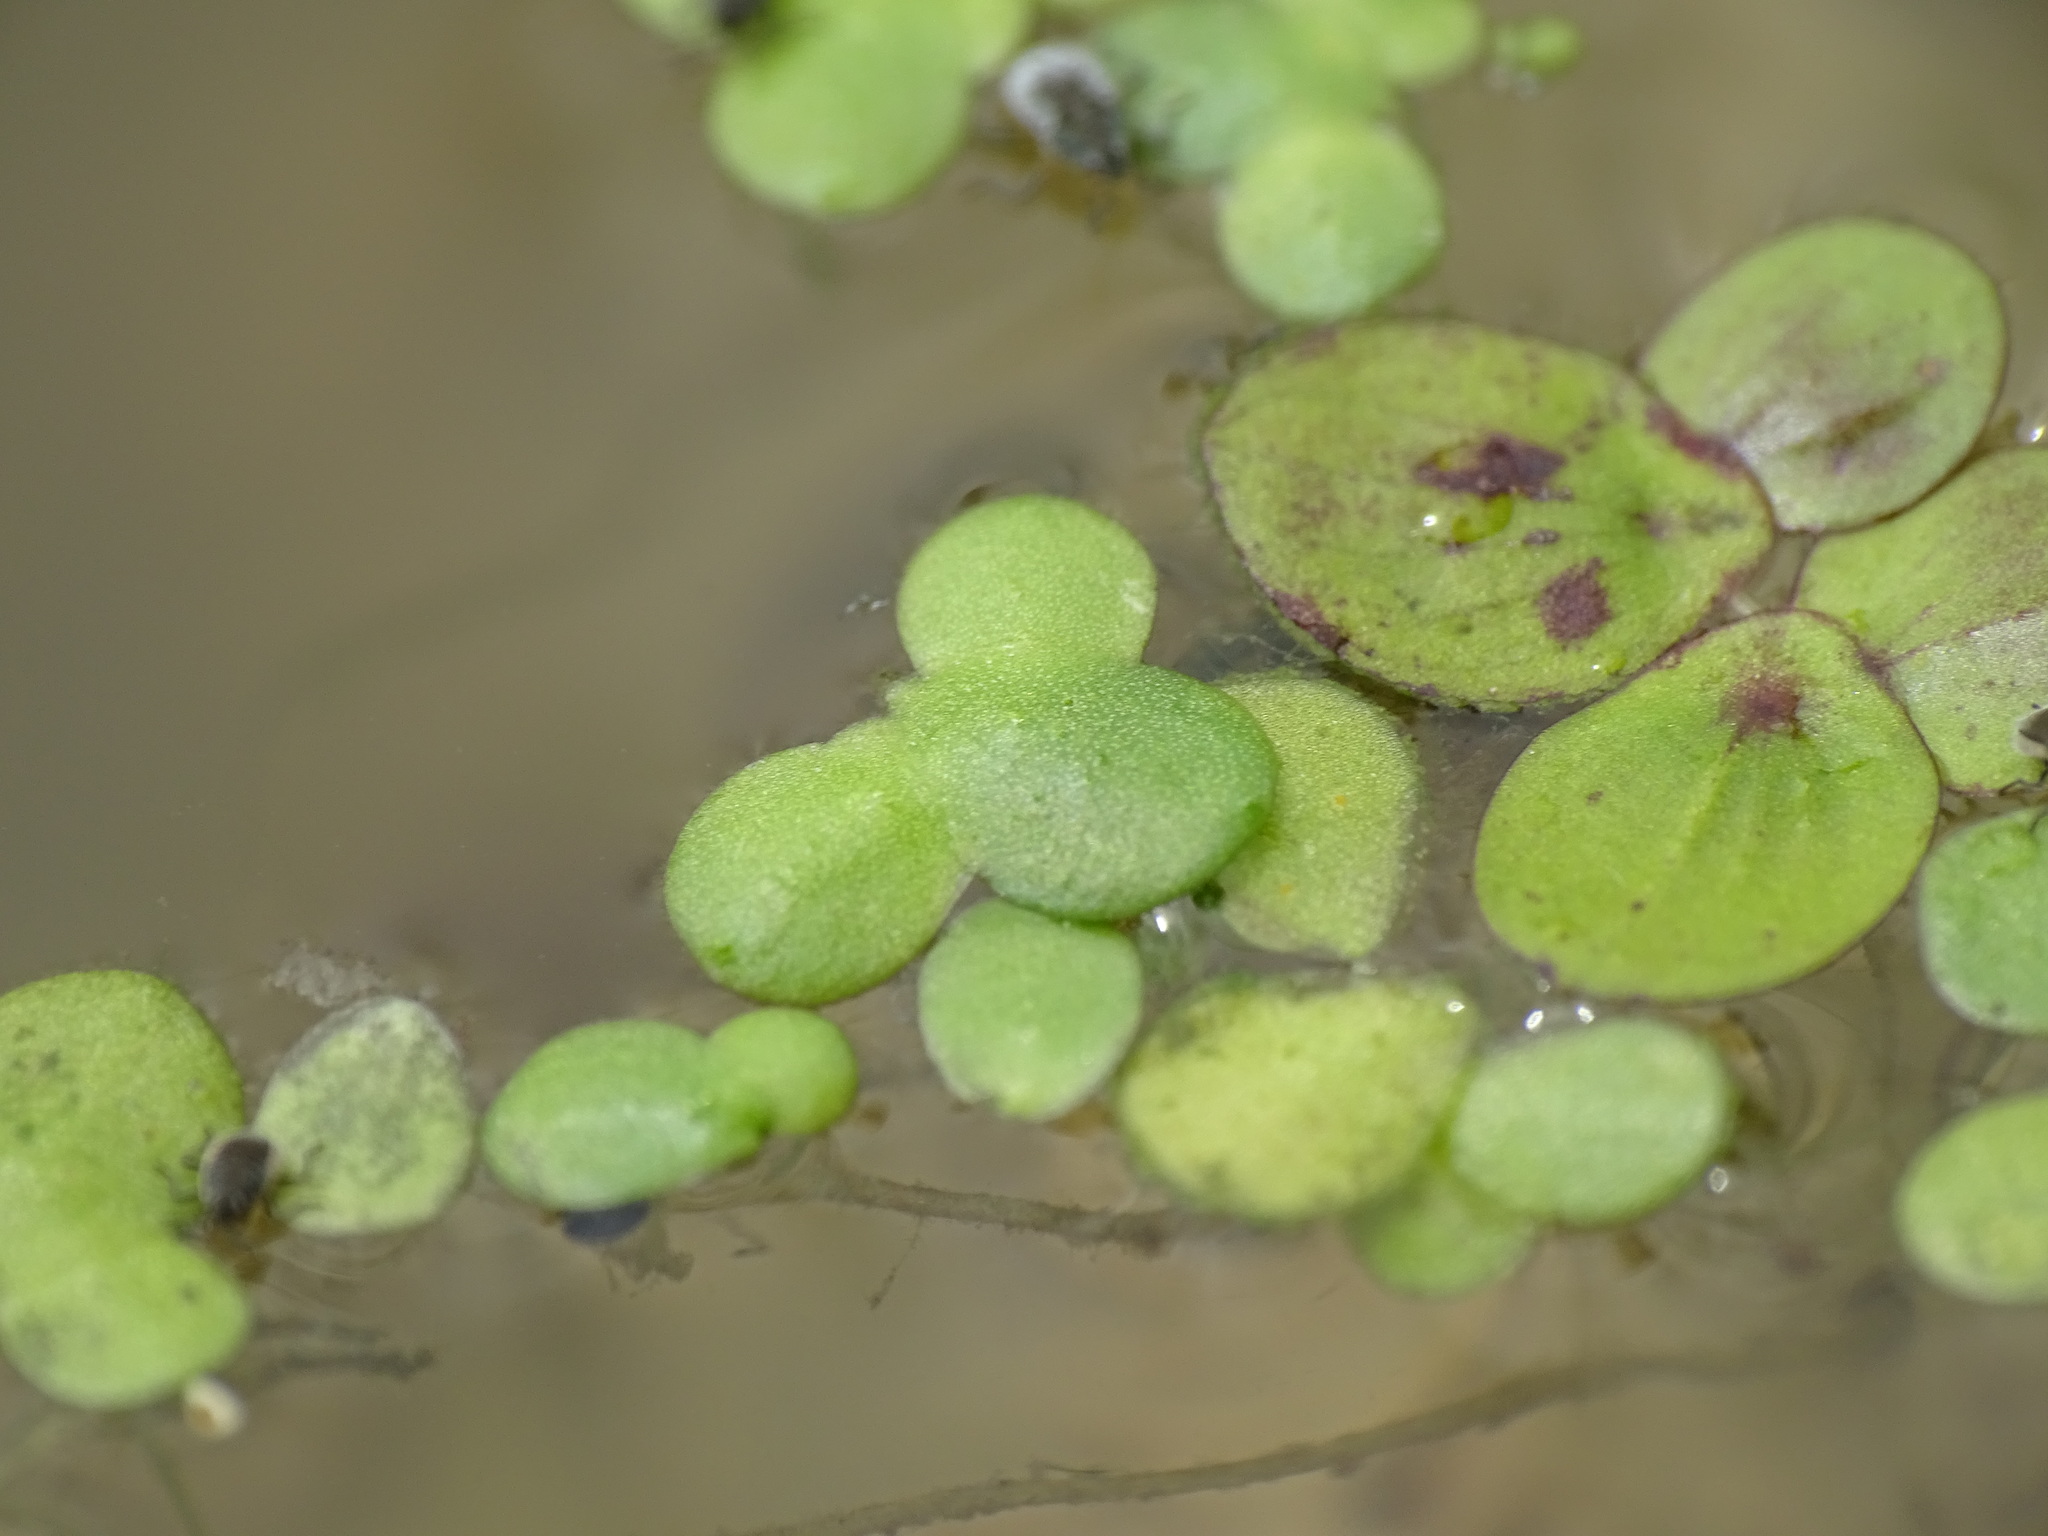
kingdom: Plantae
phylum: Tracheophyta
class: Liliopsida
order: Alismatales
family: Araceae
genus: Lemna
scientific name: Lemna turionifera
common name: Perennial duckweed
